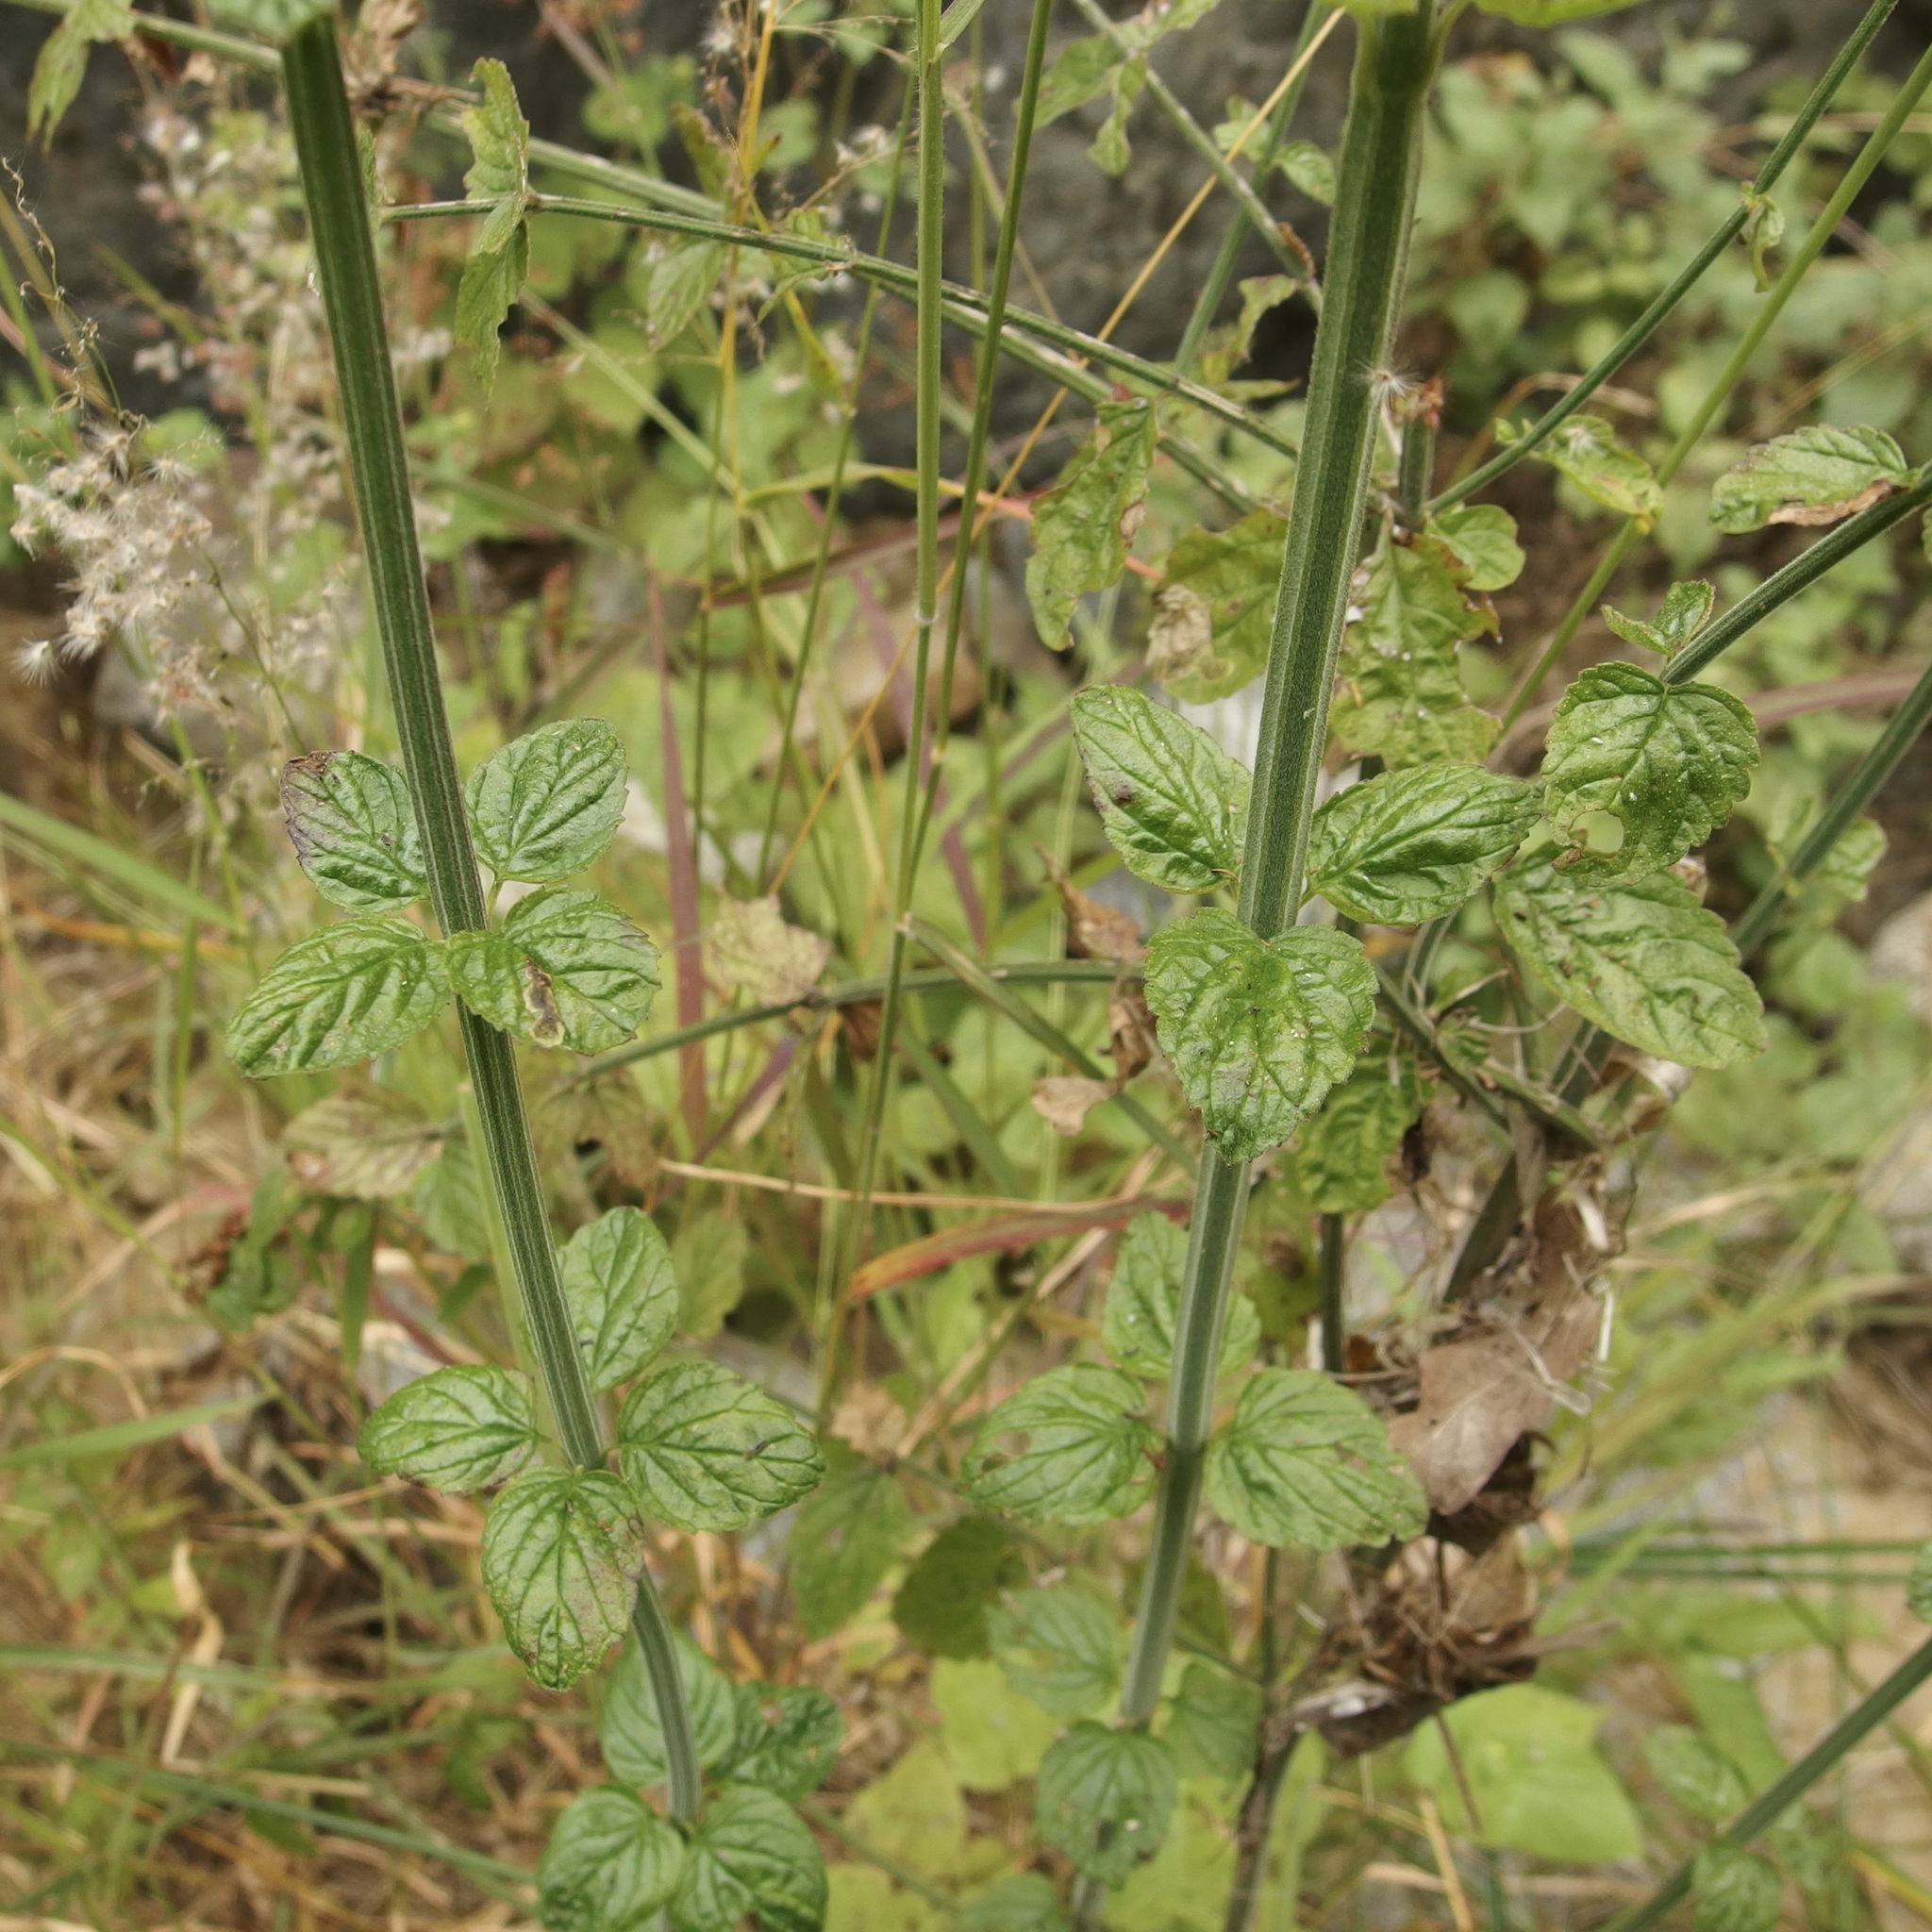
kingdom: Plantae
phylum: Tracheophyta
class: Magnoliopsida
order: Lamiales
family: Plantaginaceae
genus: Russelia
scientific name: Russelia retrorsa
